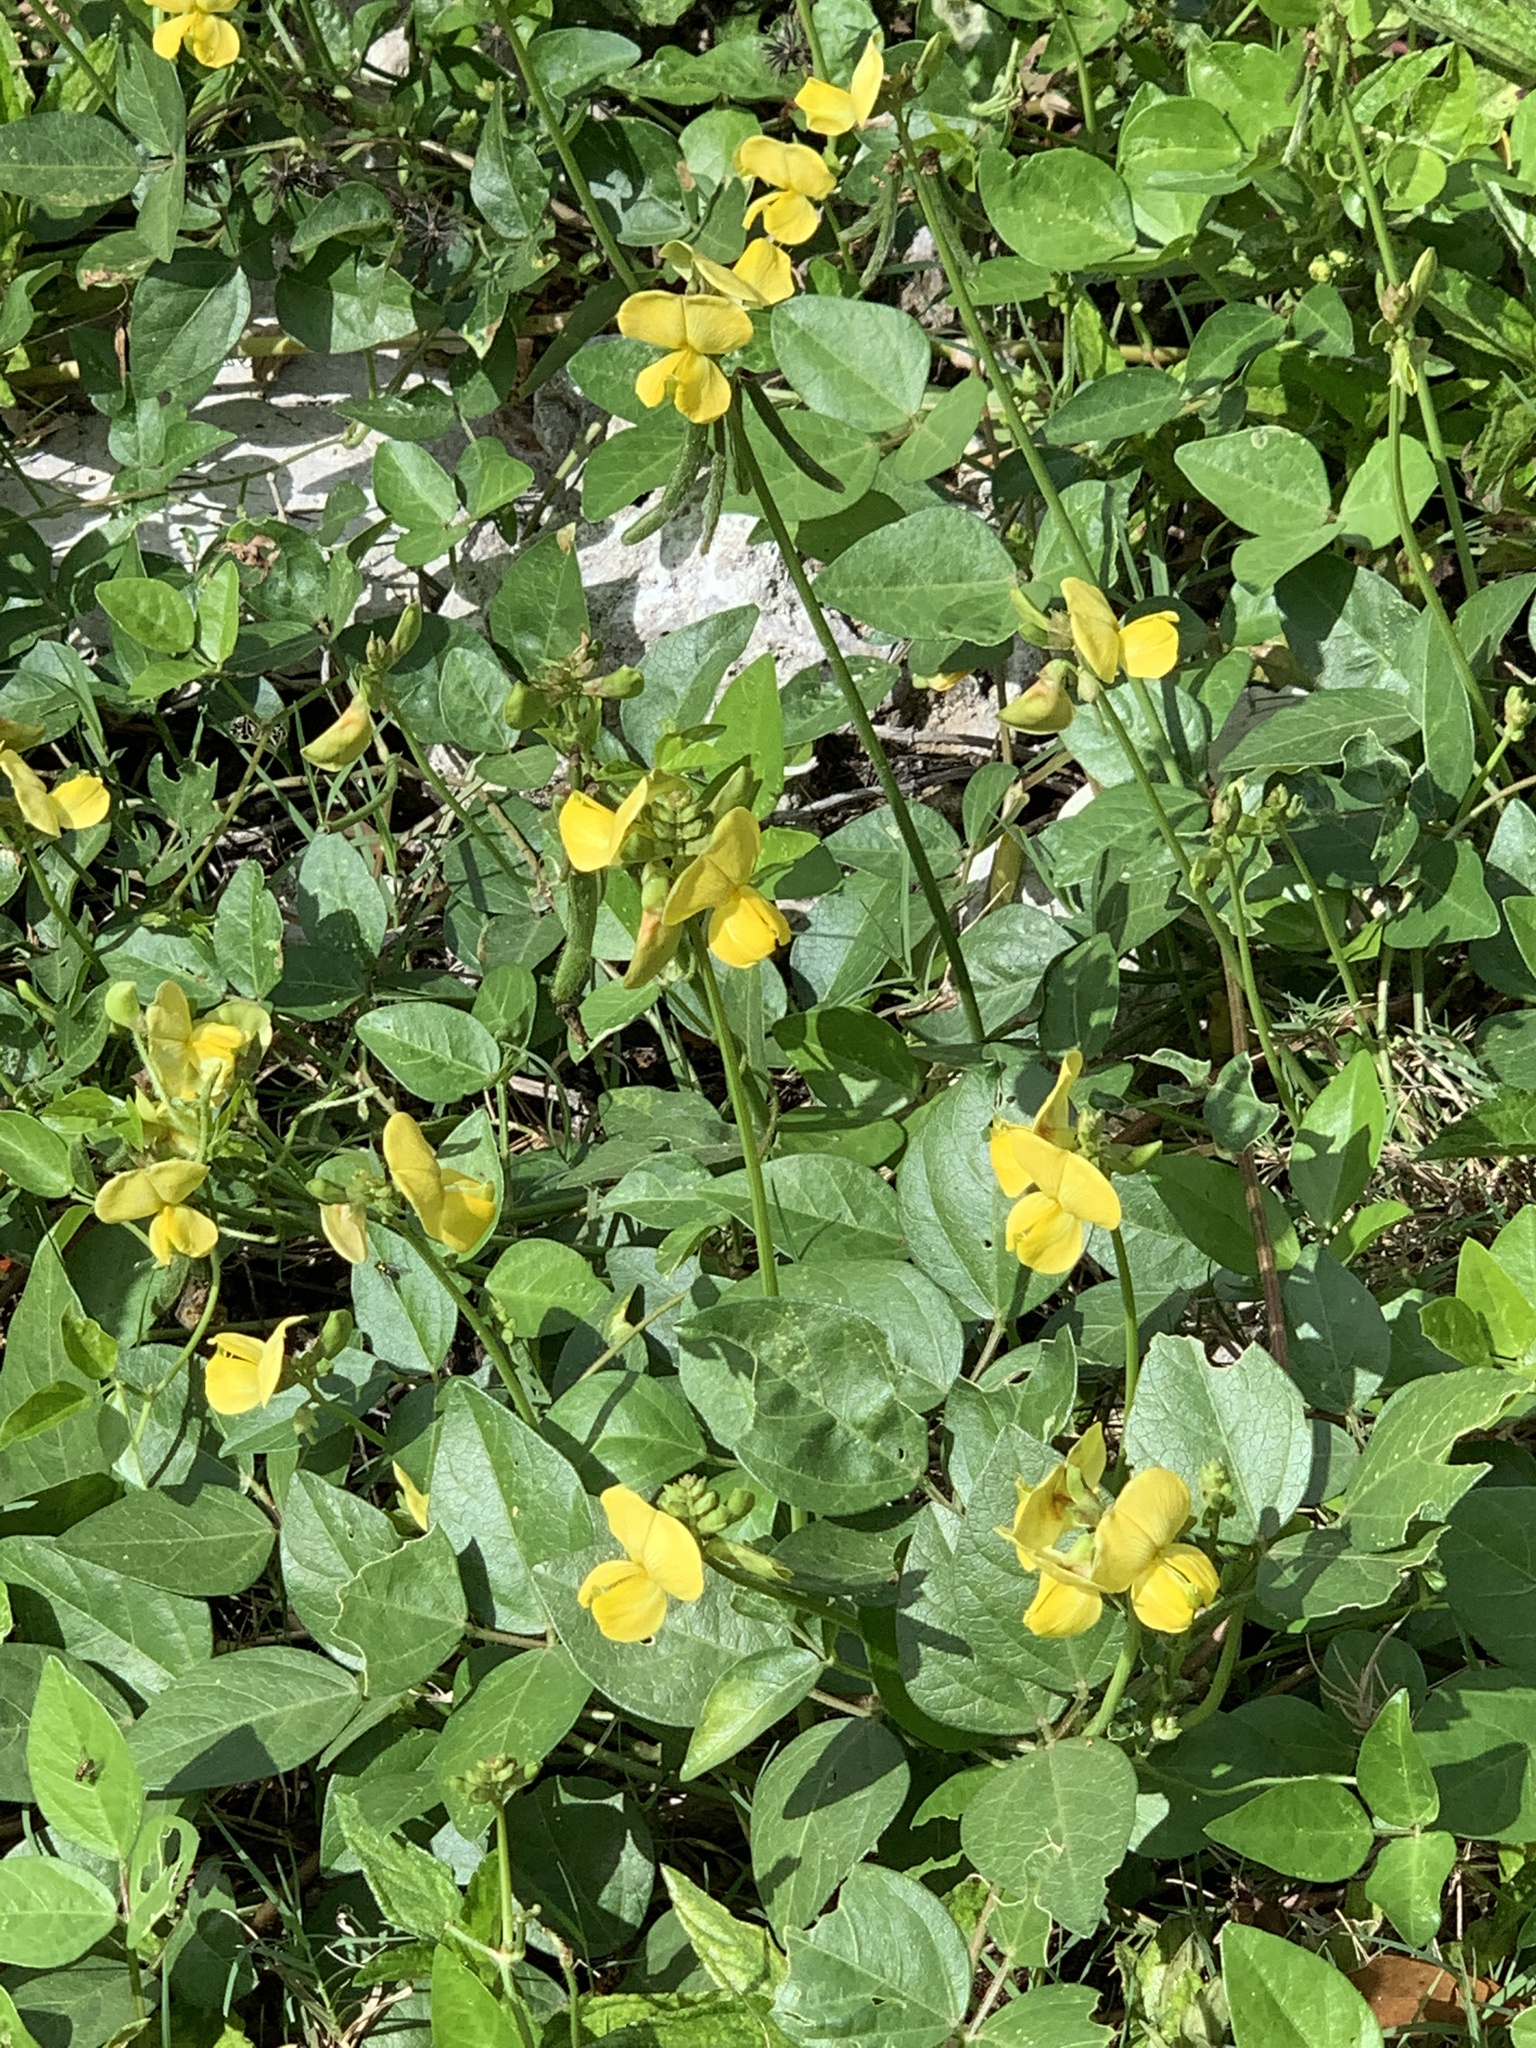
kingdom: Plantae
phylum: Tracheophyta
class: Magnoliopsida
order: Fabales
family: Fabaceae
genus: Vigna
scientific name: Vigna luteola
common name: Hairypod cowpea
